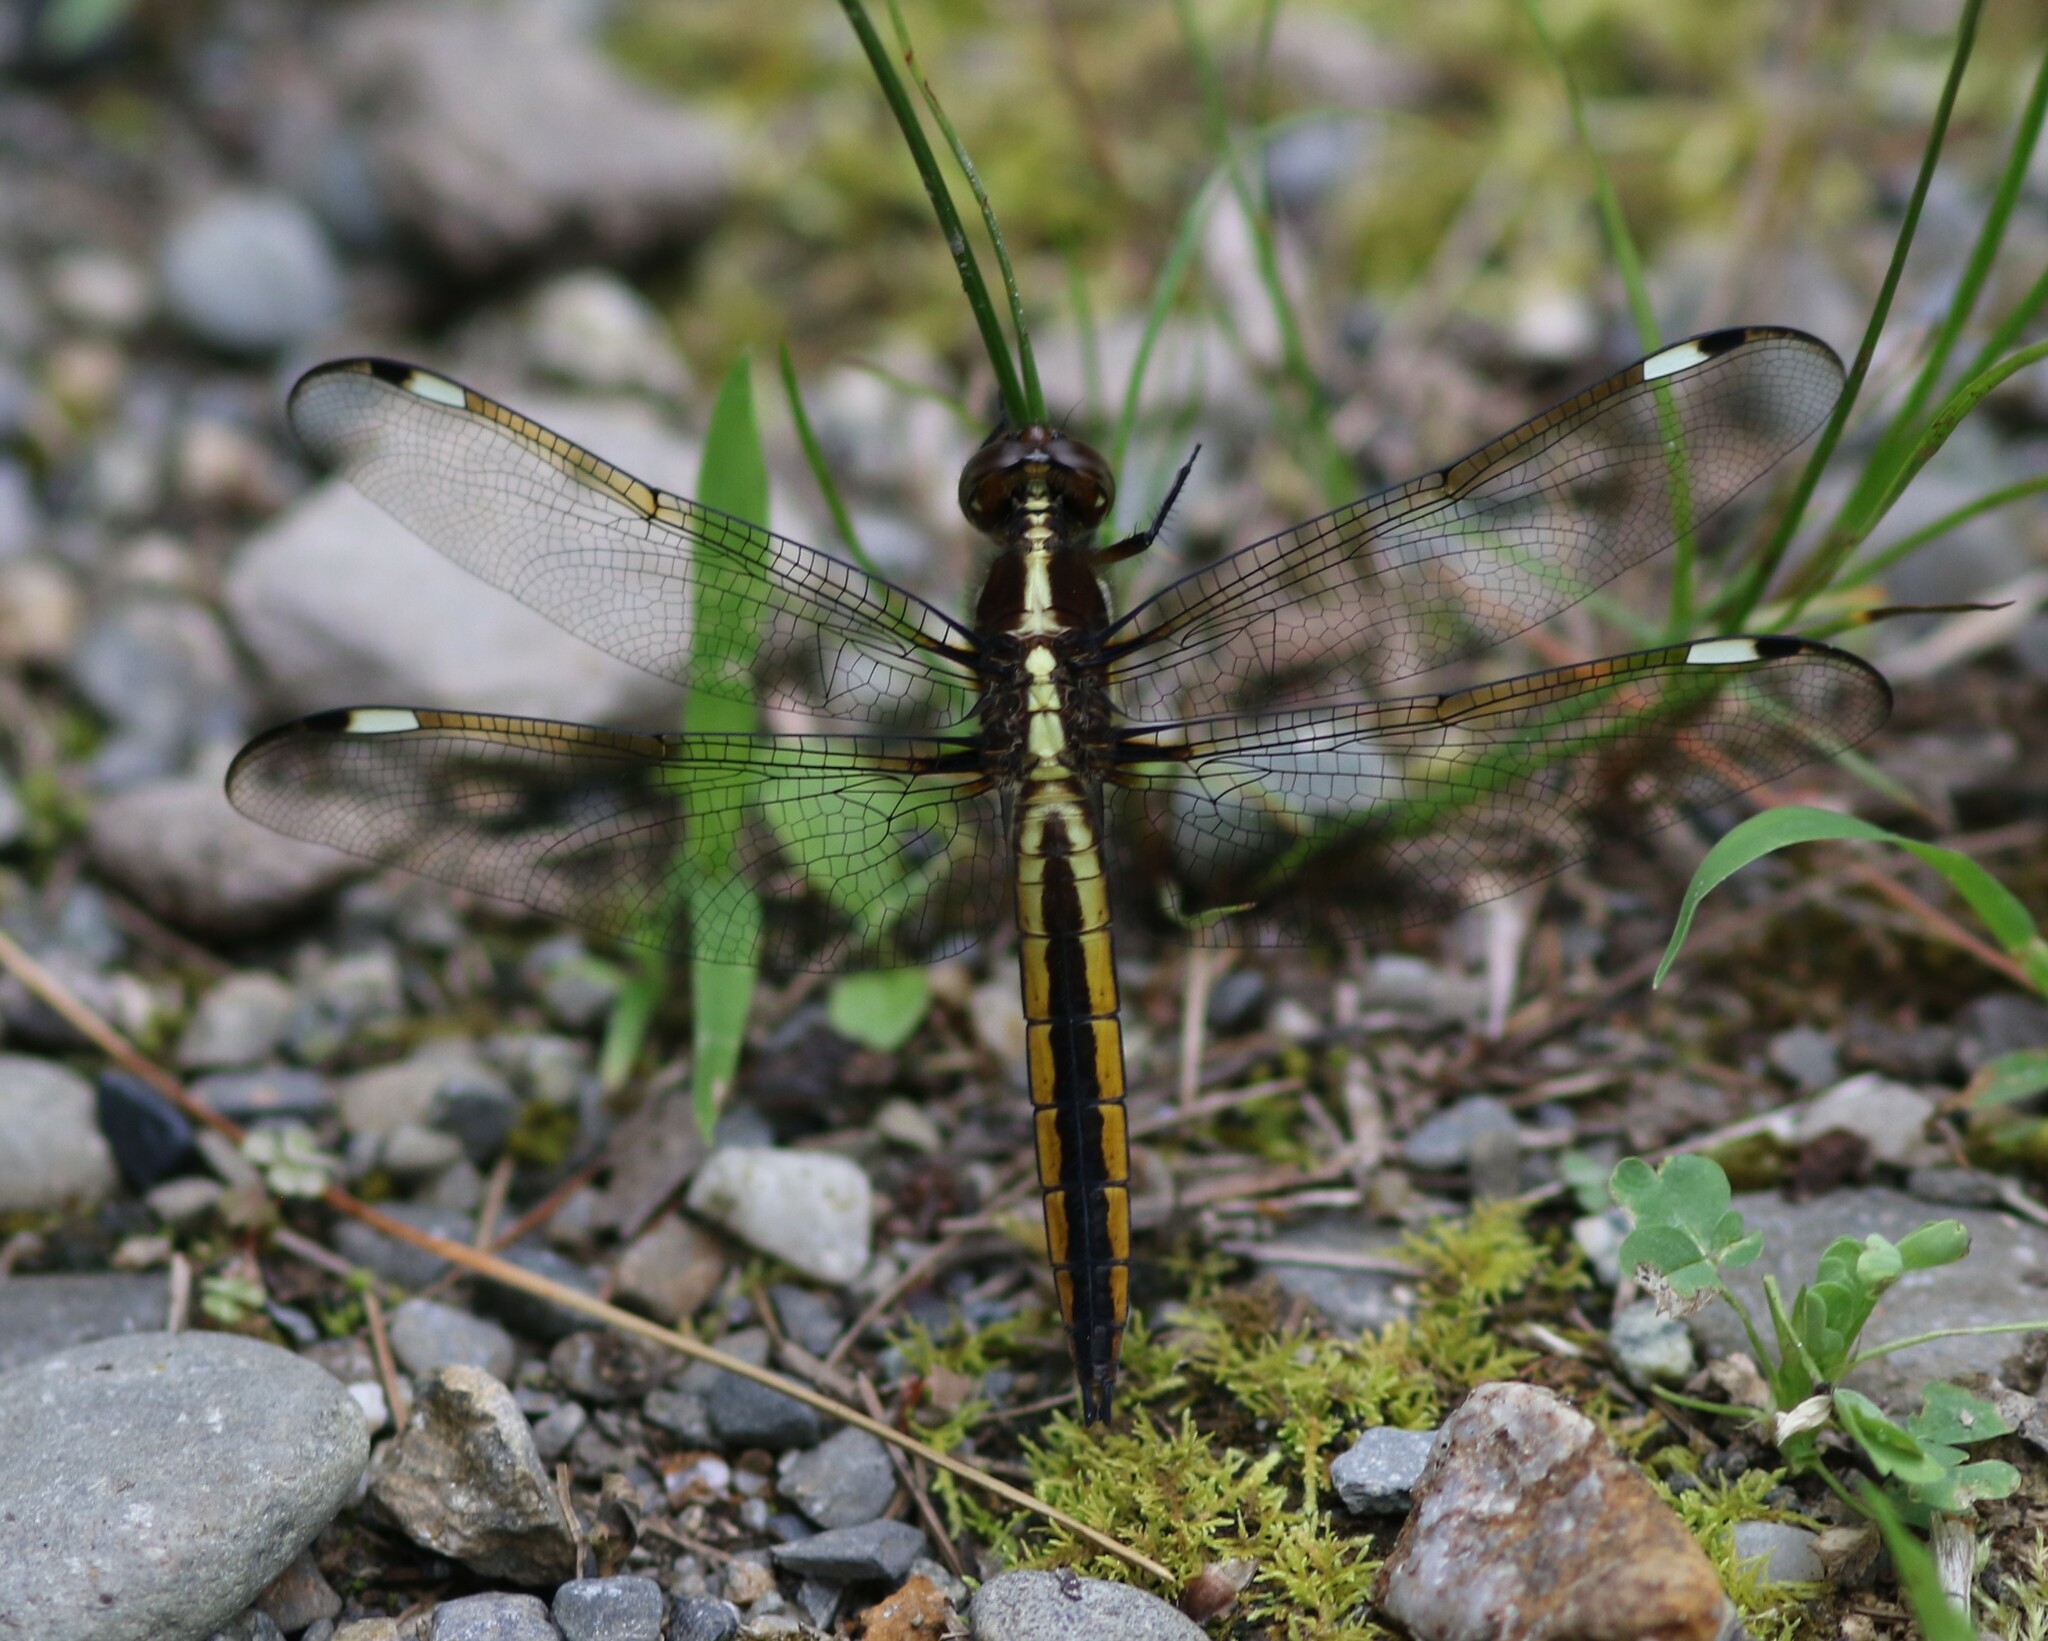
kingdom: Animalia
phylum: Arthropoda
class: Insecta
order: Odonata
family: Libellulidae
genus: Libellula
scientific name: Libellula cyanea
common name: Spangled skimmer
